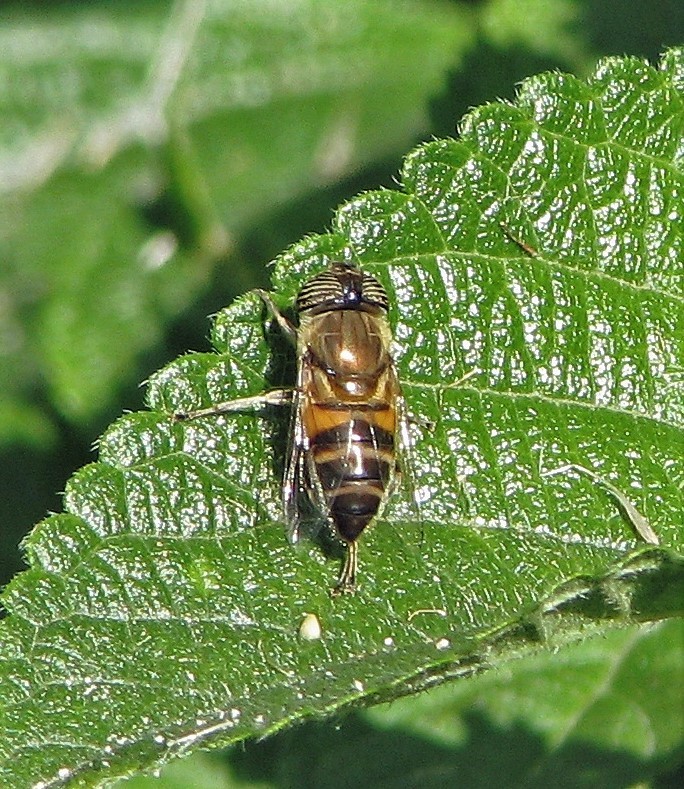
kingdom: Animalia
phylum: Arthropoda
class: Insecta
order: Diptera
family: Syrphidae
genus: Eristalinus
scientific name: Eristalinus taeniops
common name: Syrphid fly
